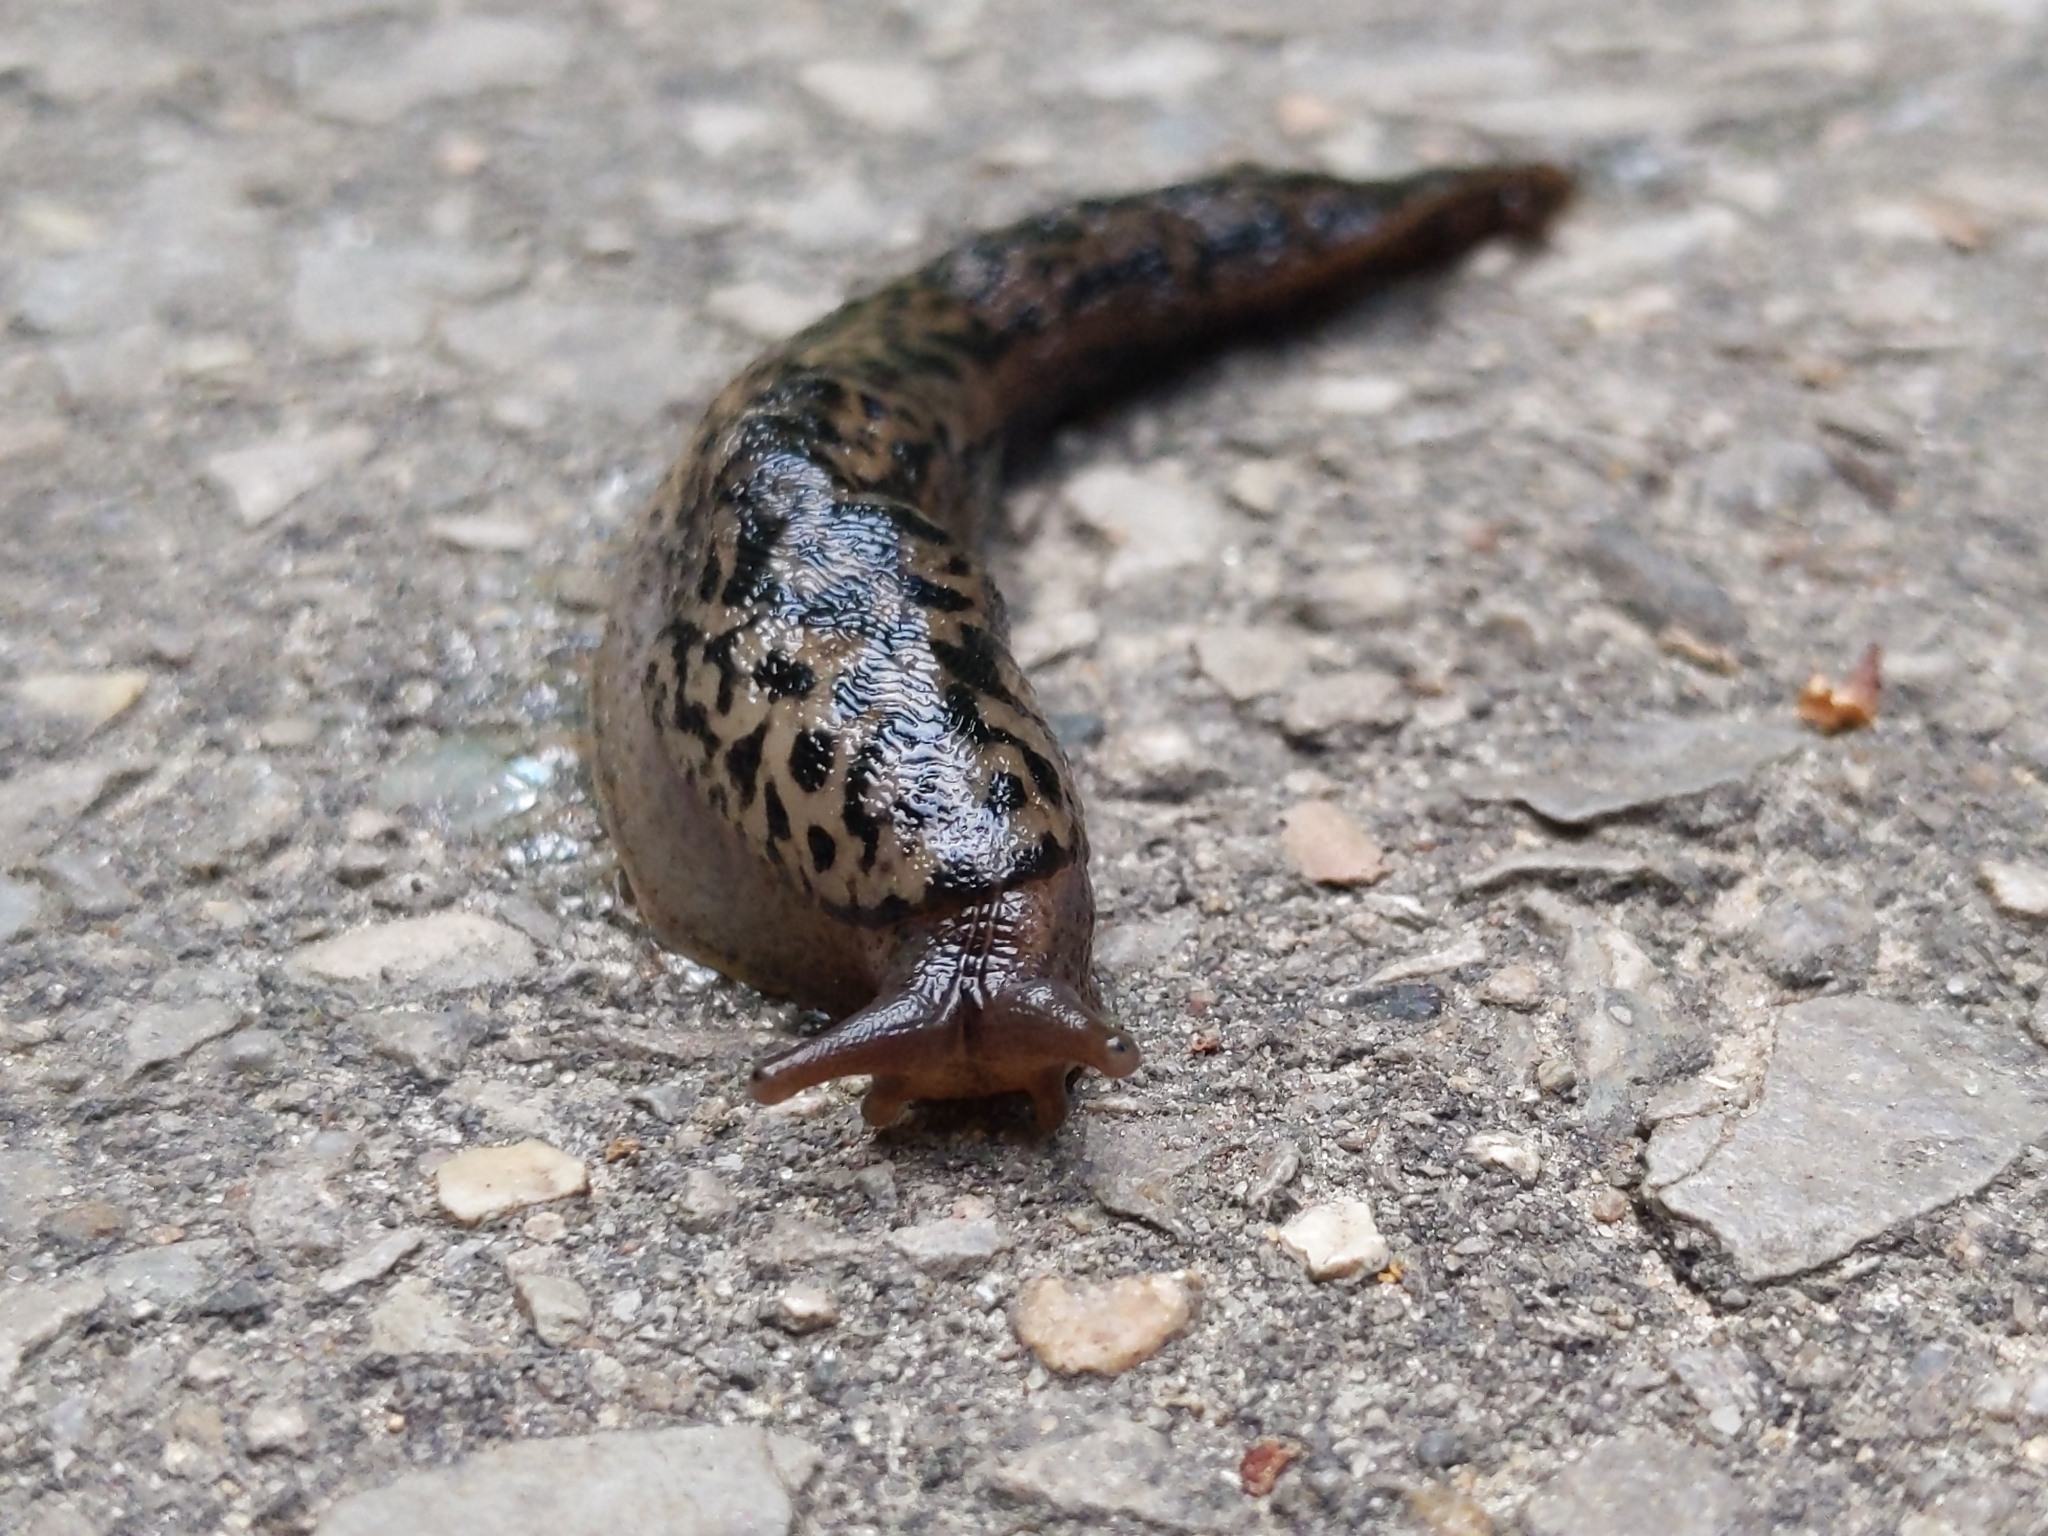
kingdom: Animalia
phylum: Mollusca
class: Gastropoda
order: Stylommatophora
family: Limacidae
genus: Limax
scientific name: Limax maximus
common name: Great grey slug
